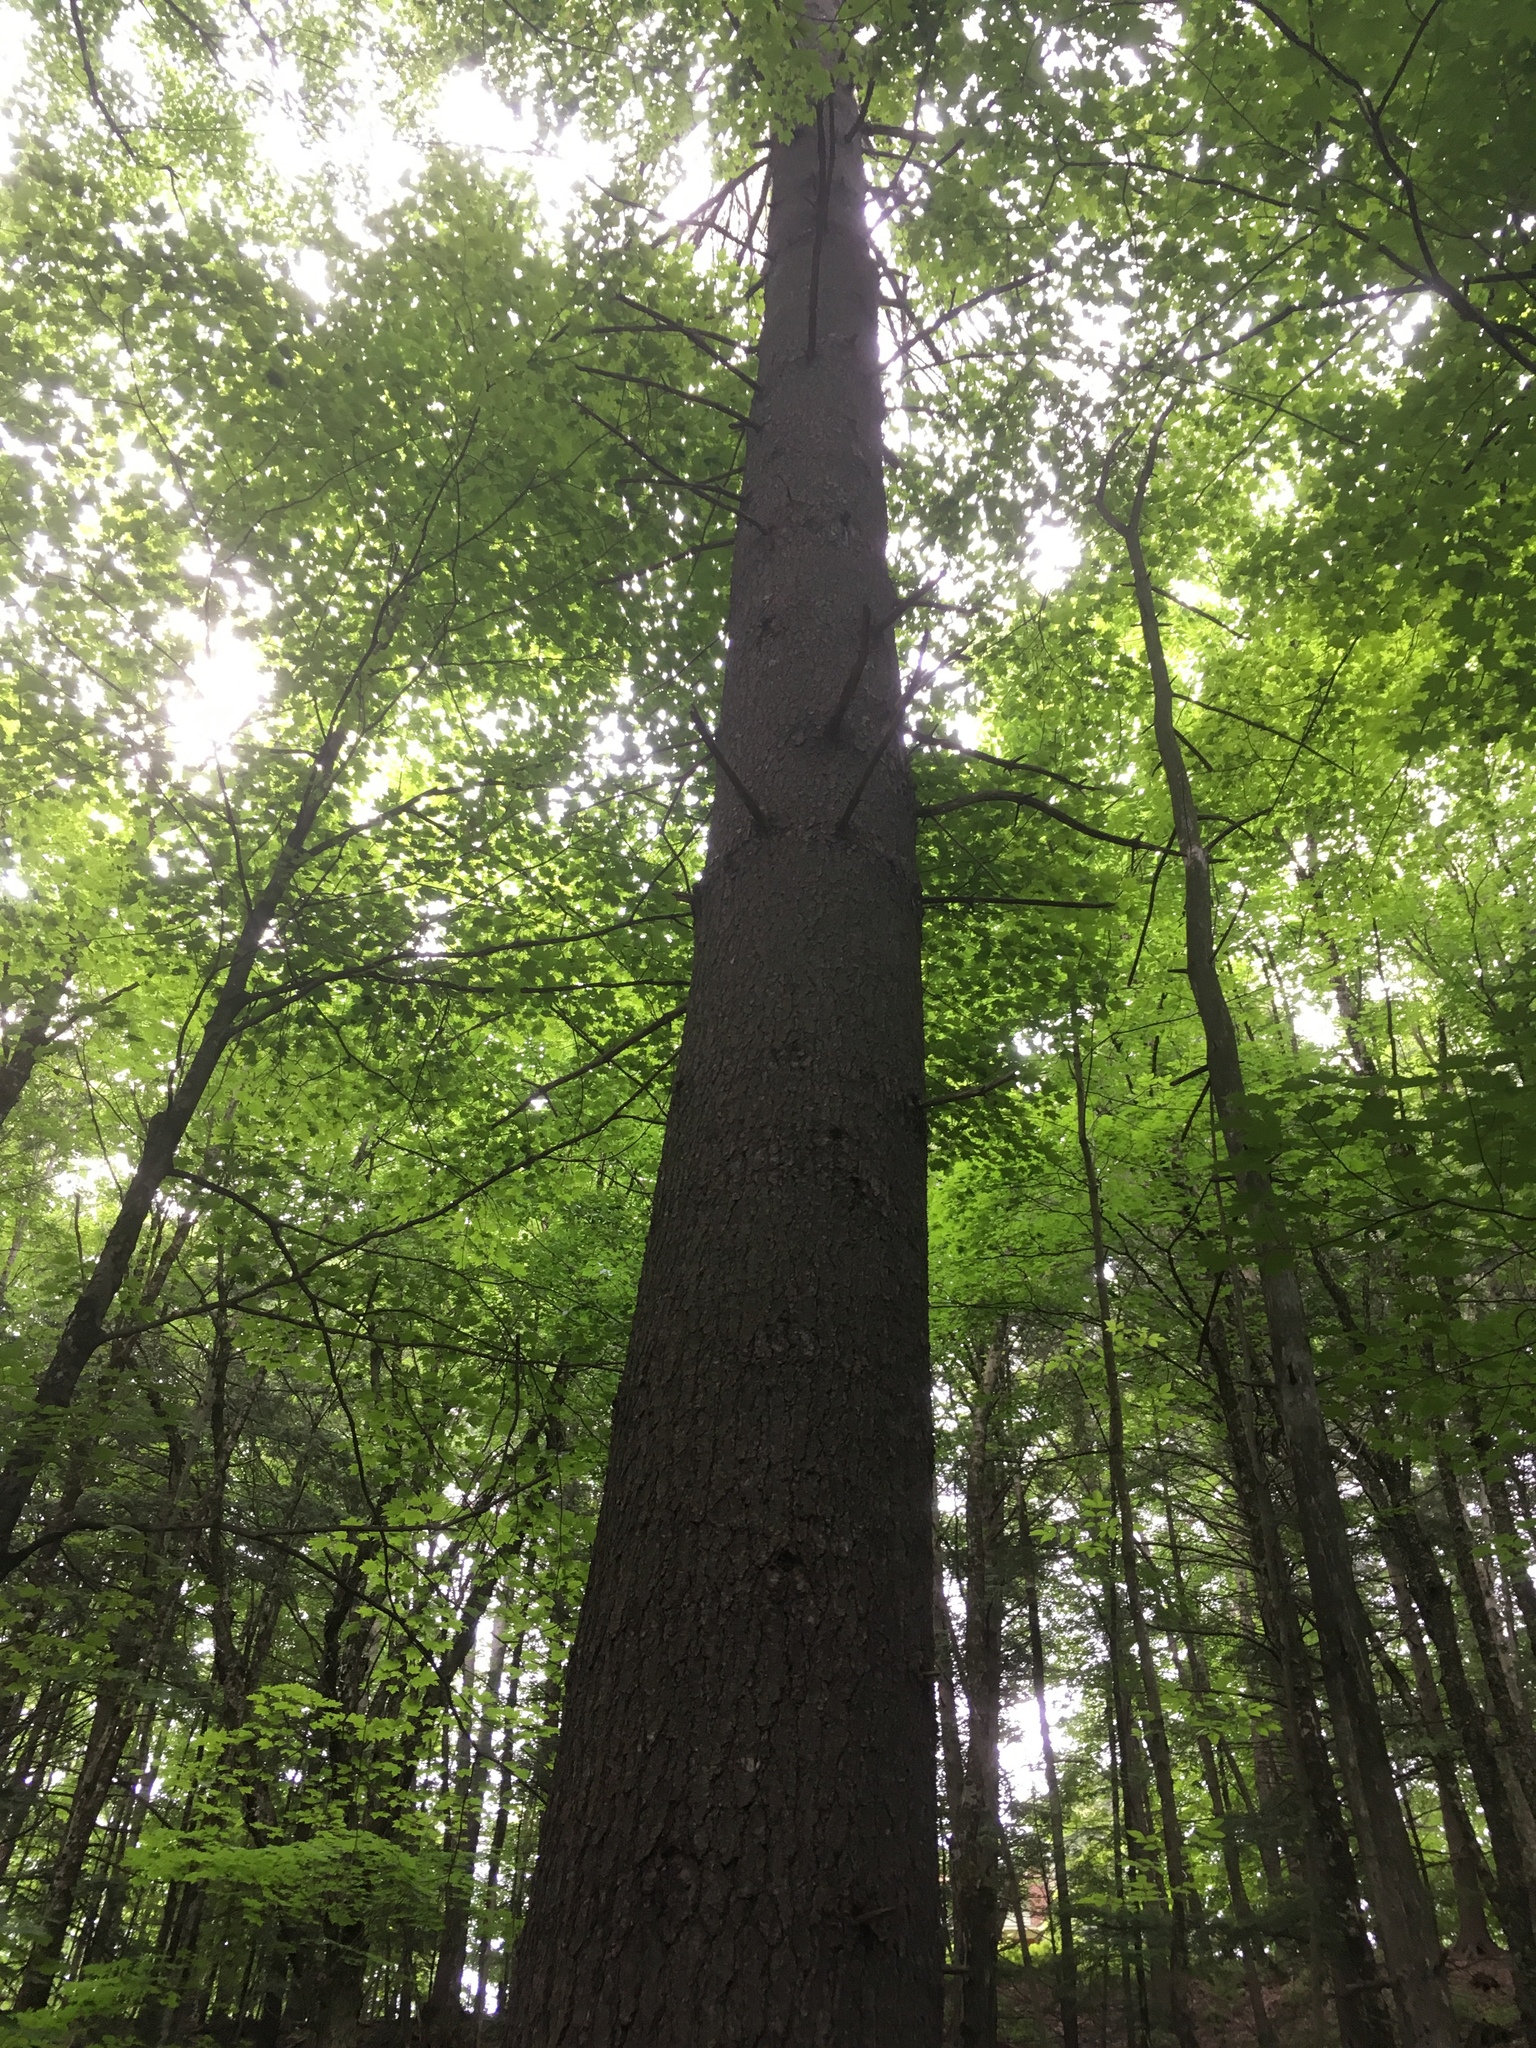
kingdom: Plantae
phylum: Tracheophyta
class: Pinopsida
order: Pinales
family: Pinaceae
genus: Pinus
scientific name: Pinus strobus
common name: Weymouth pine
